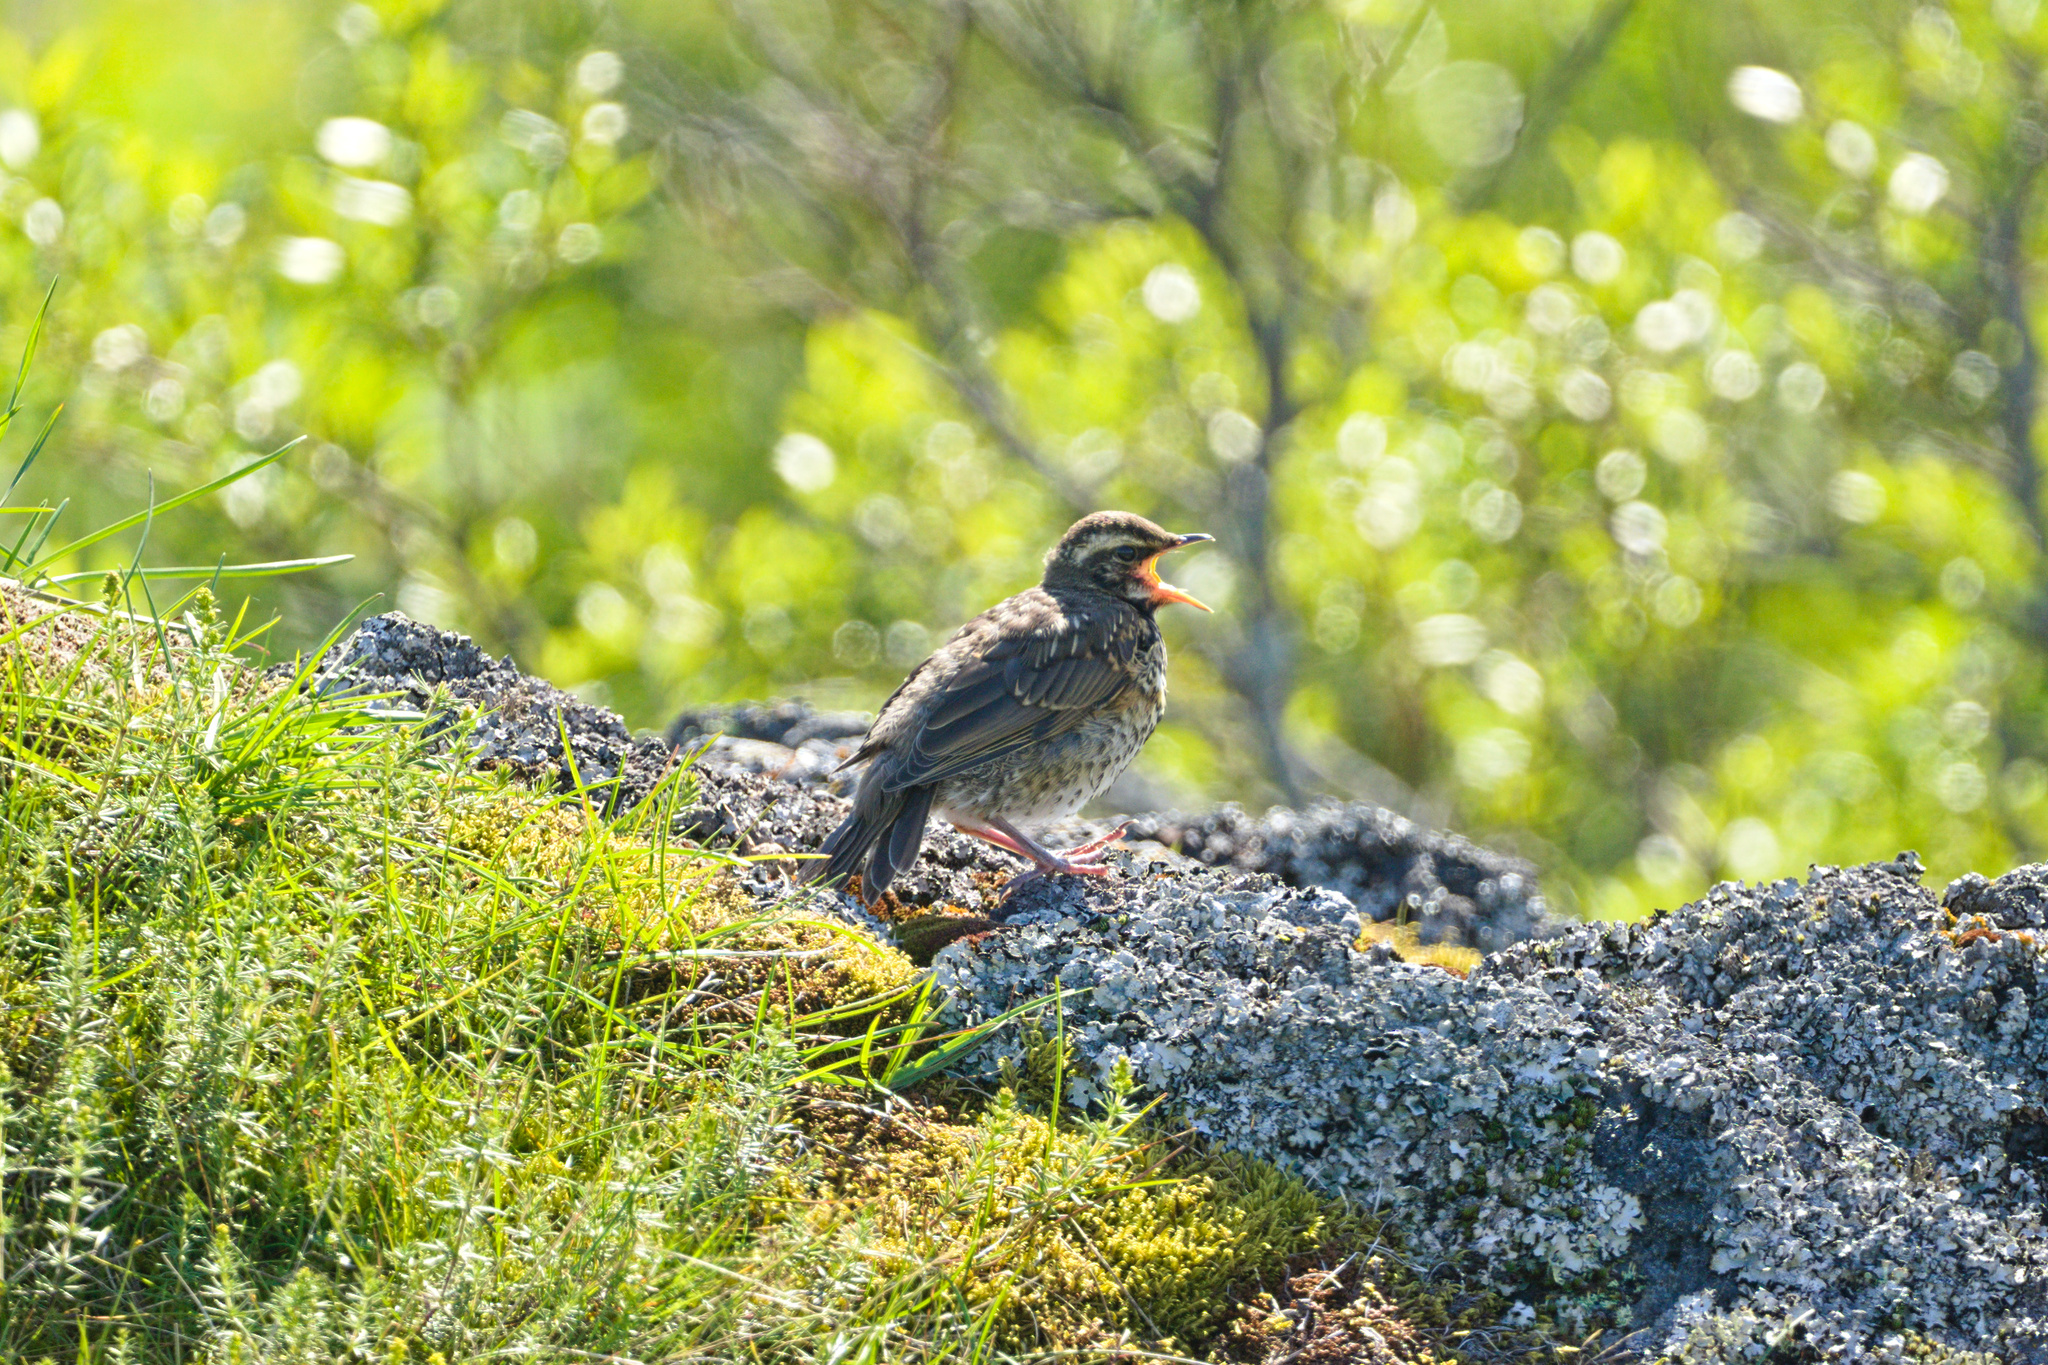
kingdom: Animalia
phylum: Chordata
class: Aves
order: Passeriformes
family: Turdidae
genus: Turdus
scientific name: Turdus iliacus
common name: Redwing
